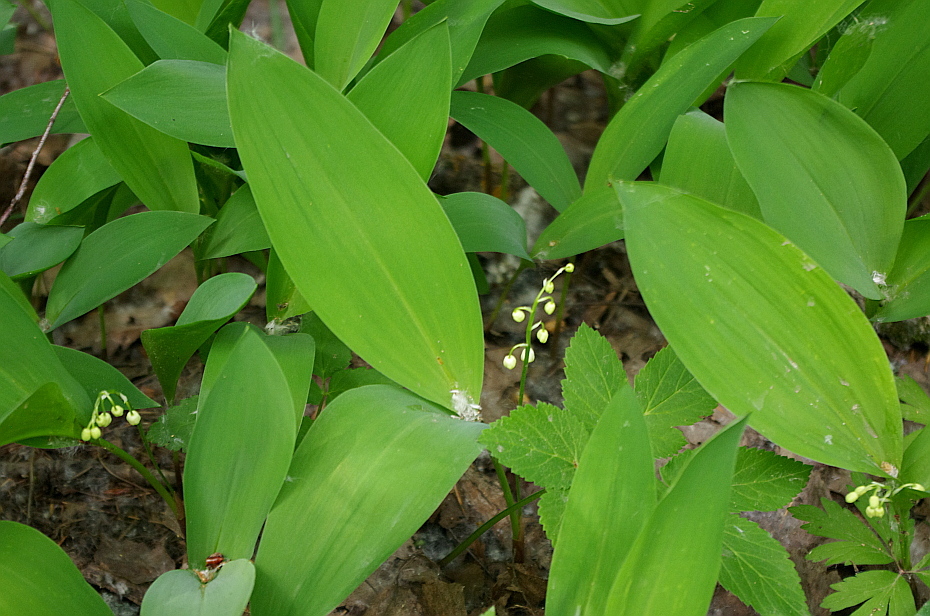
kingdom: Plantae
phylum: Tracheophyta
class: Liliopsida
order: Asparagales
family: Asparagaceae
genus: Convallaria
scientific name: Convallaria majalis
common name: Lily-of-the-valley
